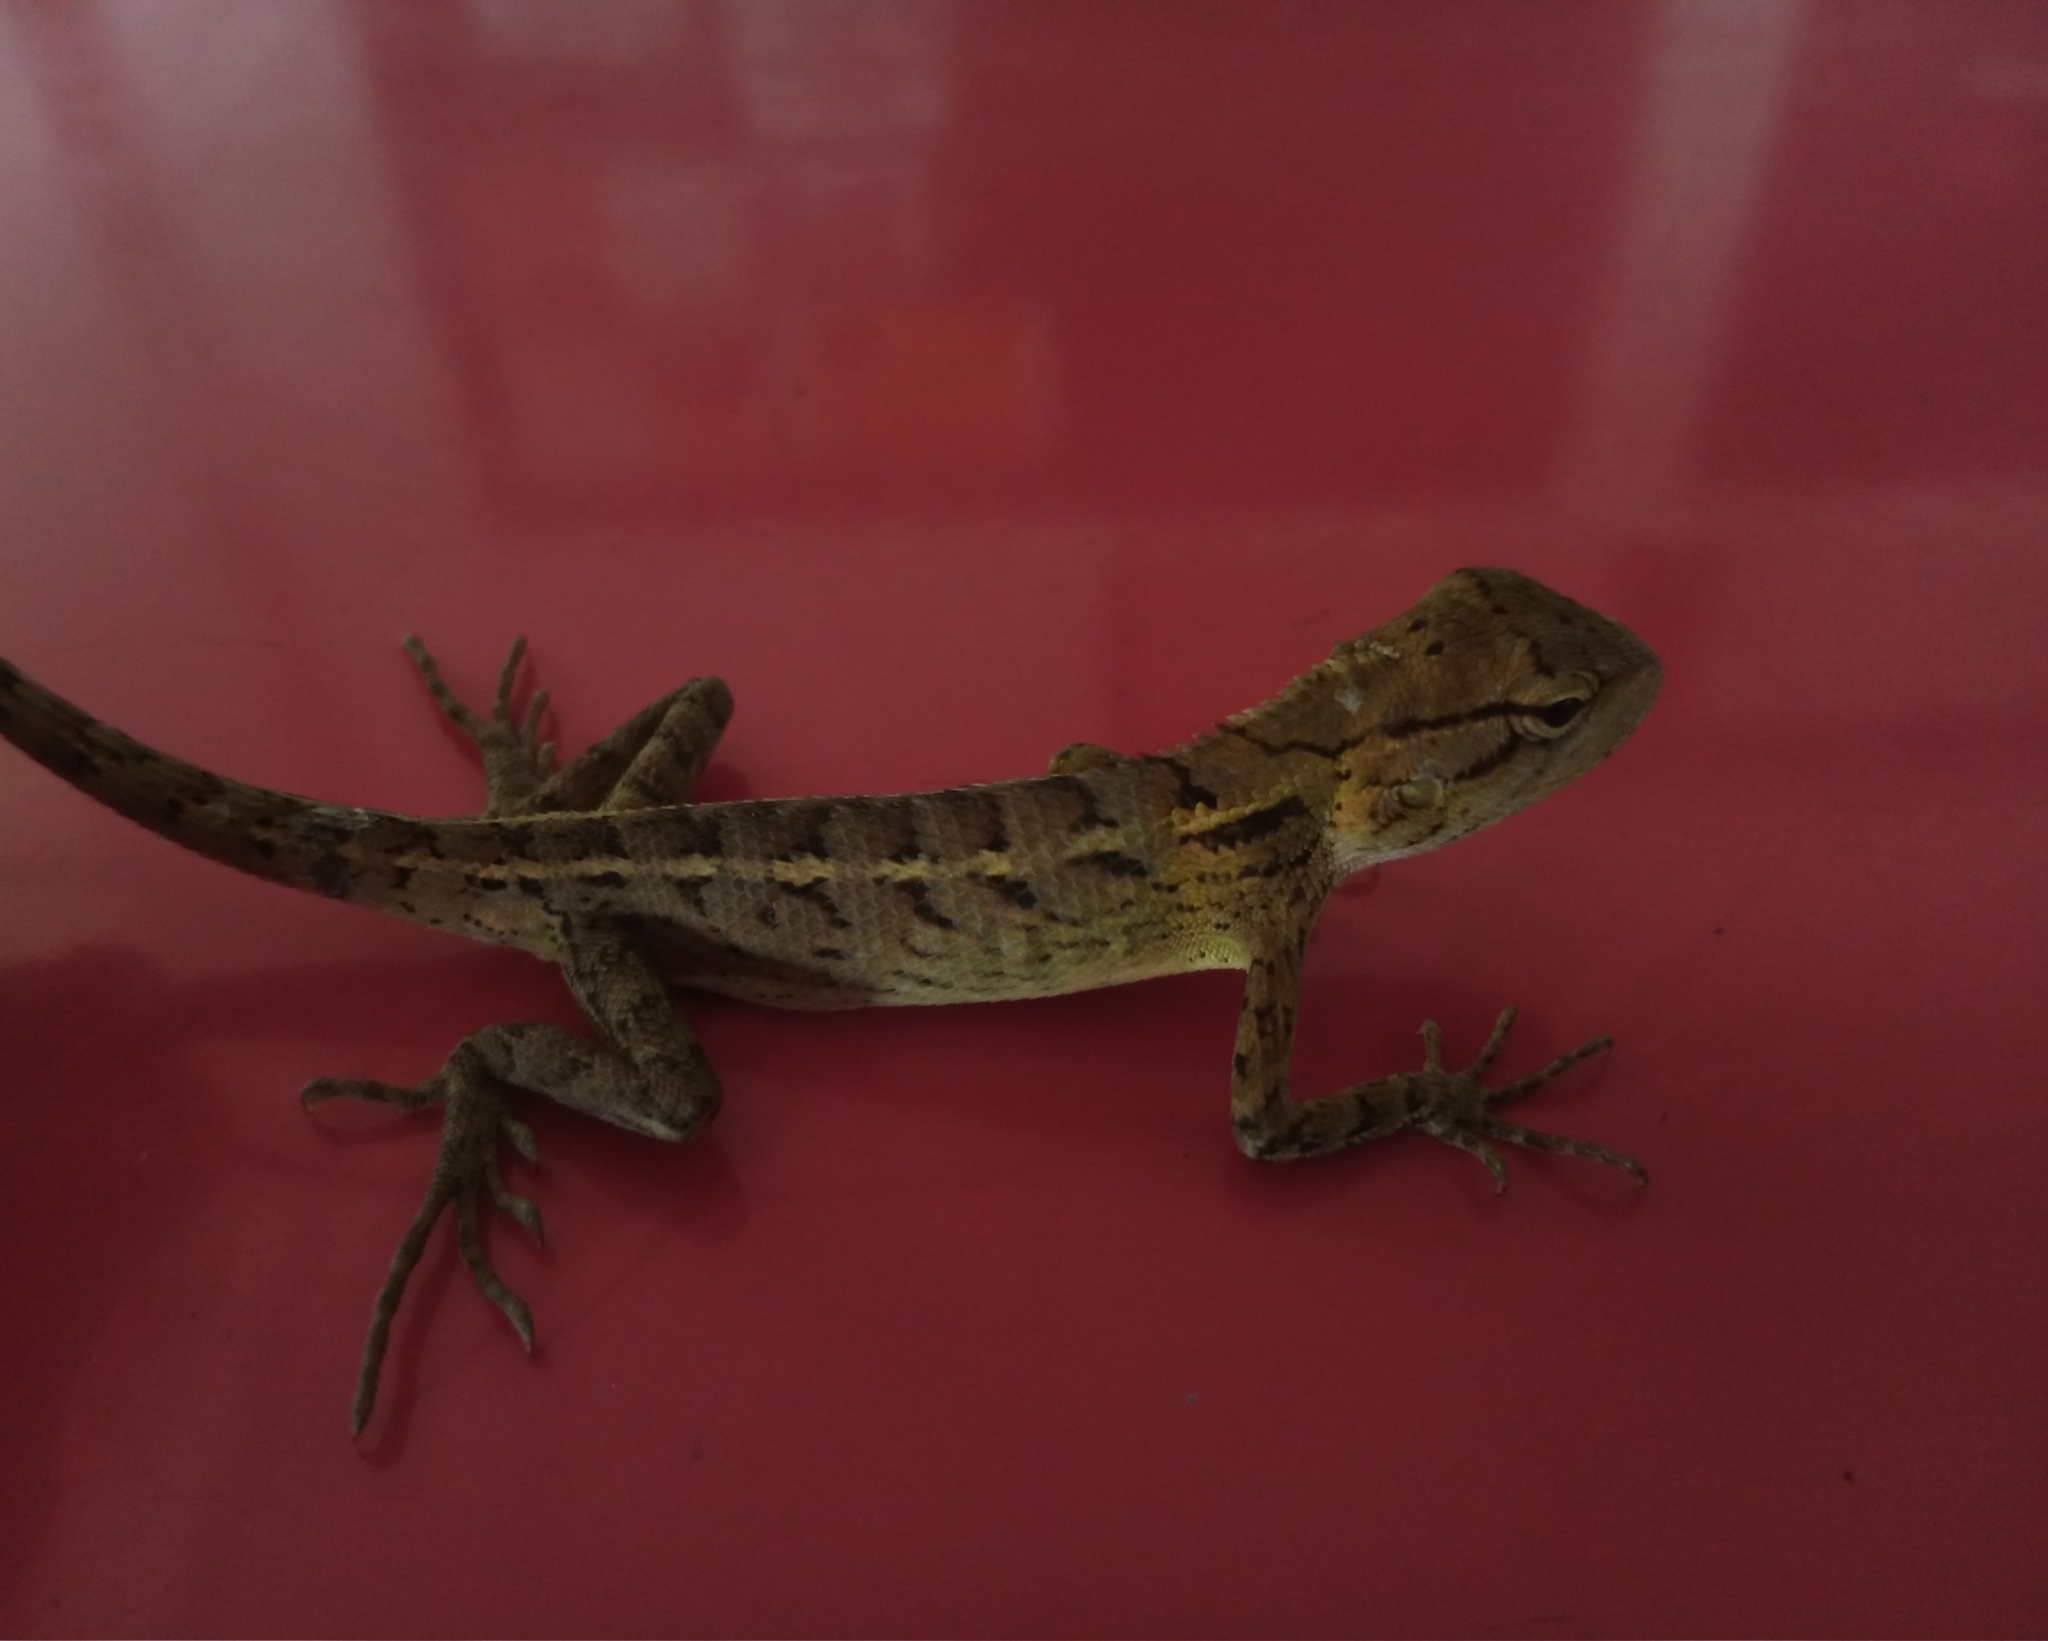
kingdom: Animalia
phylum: Chordata
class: Squamata
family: Agamidae
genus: Calotes
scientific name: Calotes versicolor
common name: Oriental garden lizard
